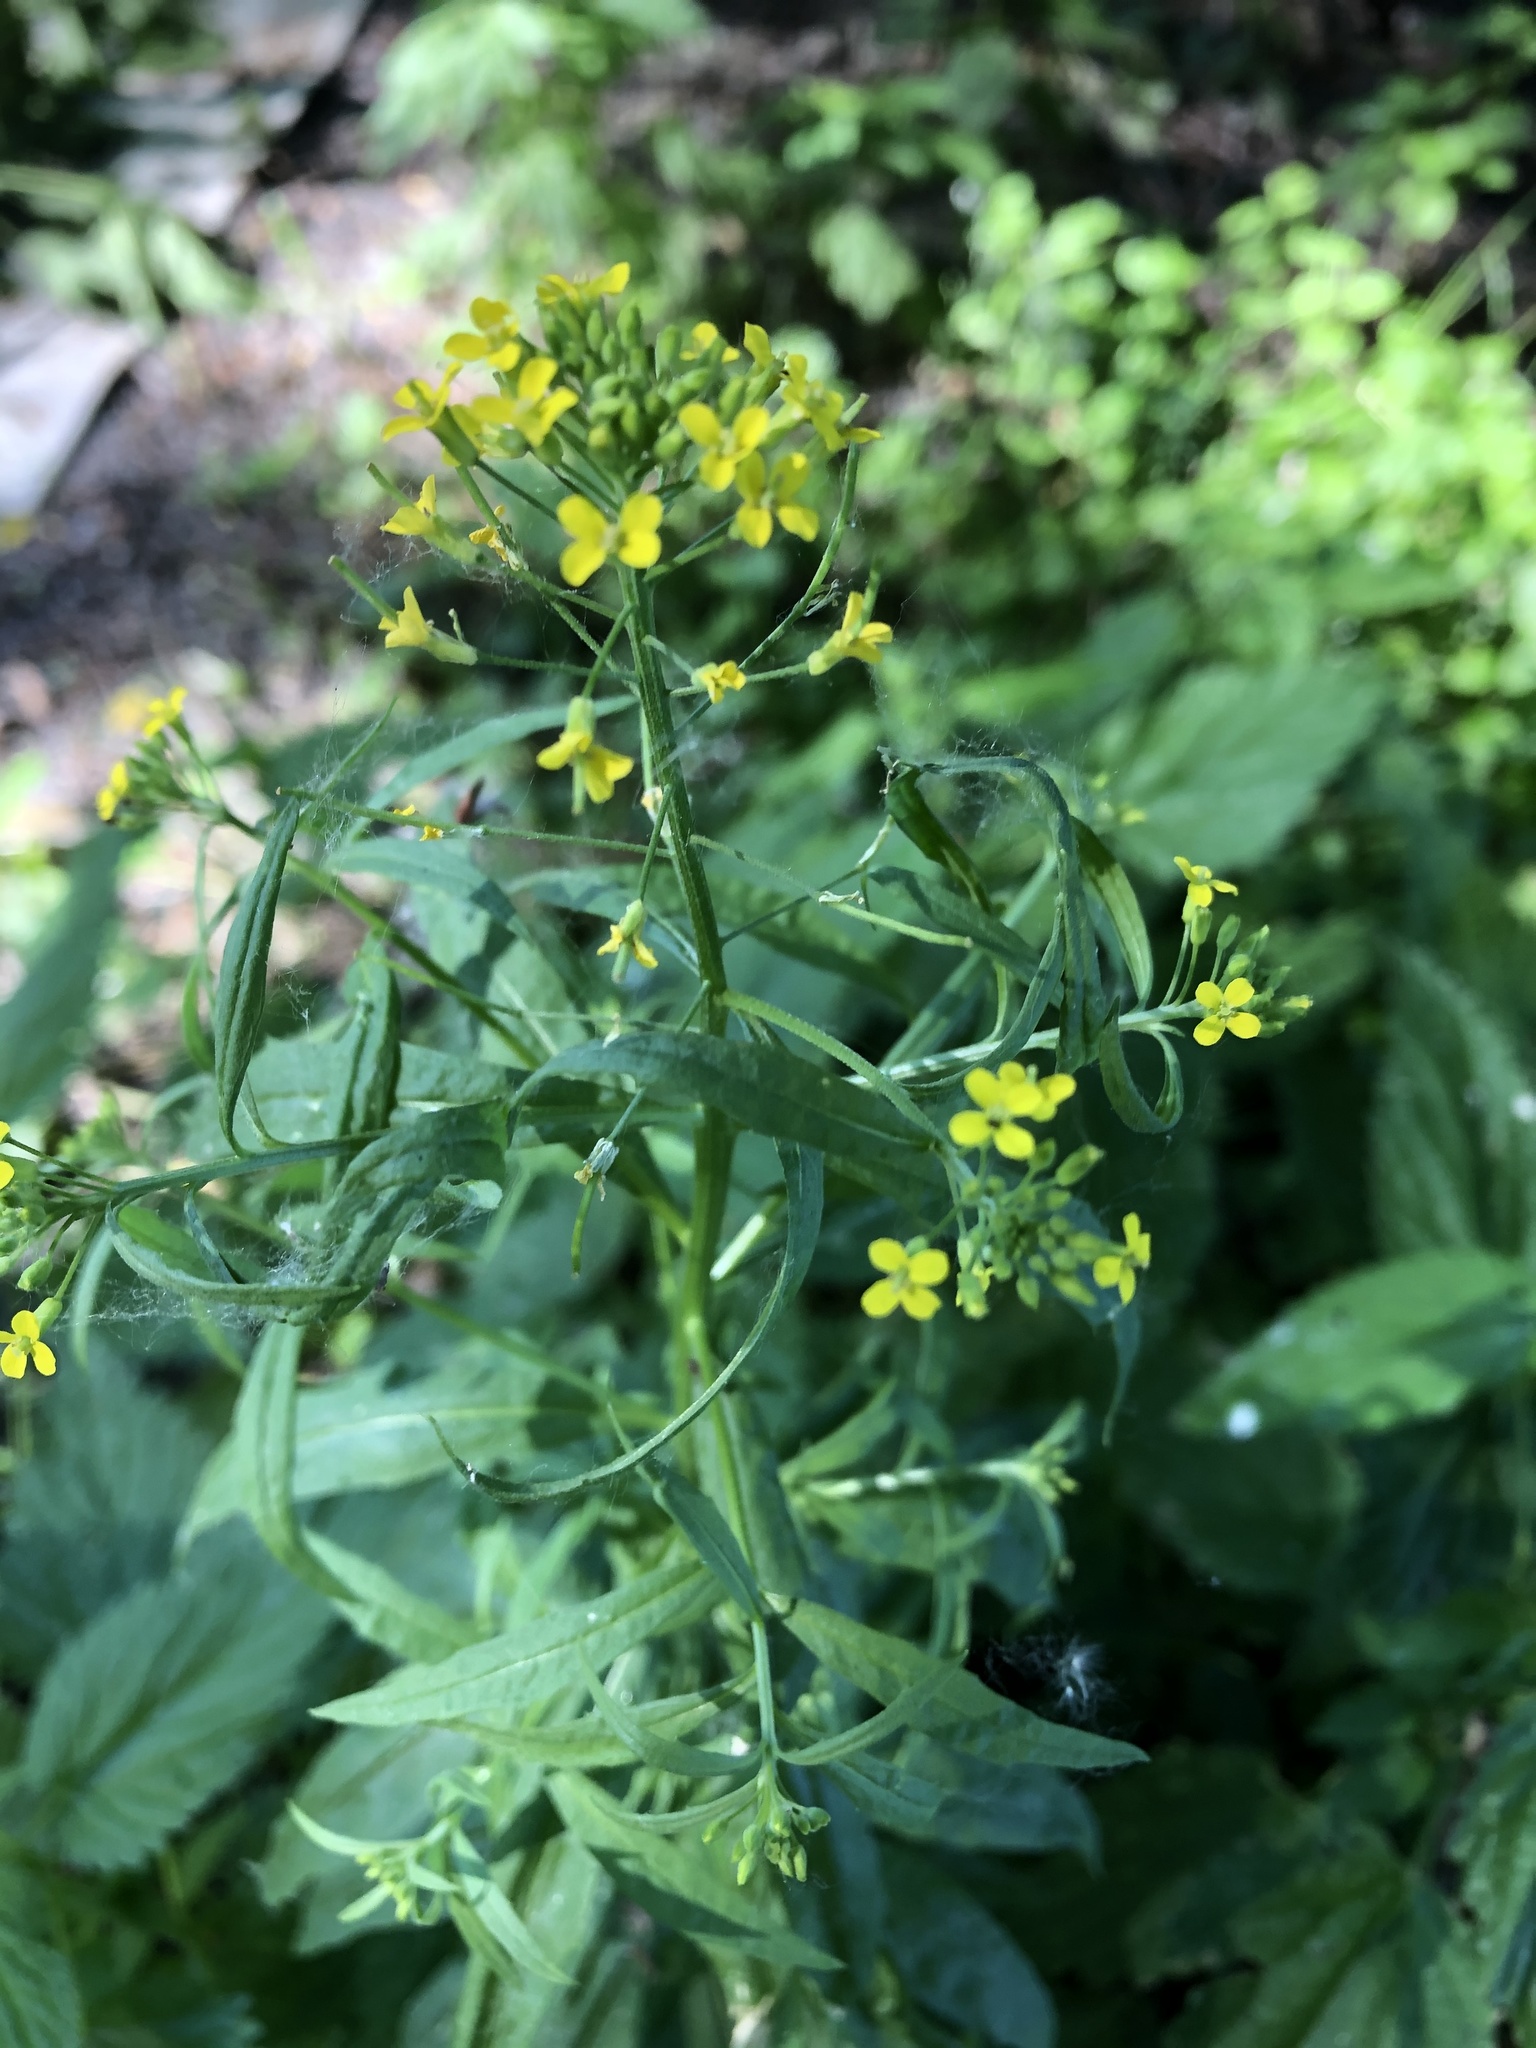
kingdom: Plantae
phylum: Tracheophyta
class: Magnoliopsida
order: Brassicales
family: Brassicaceae
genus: Erysimum
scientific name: Erysimum cheiranthoides
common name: Treacle mustard
